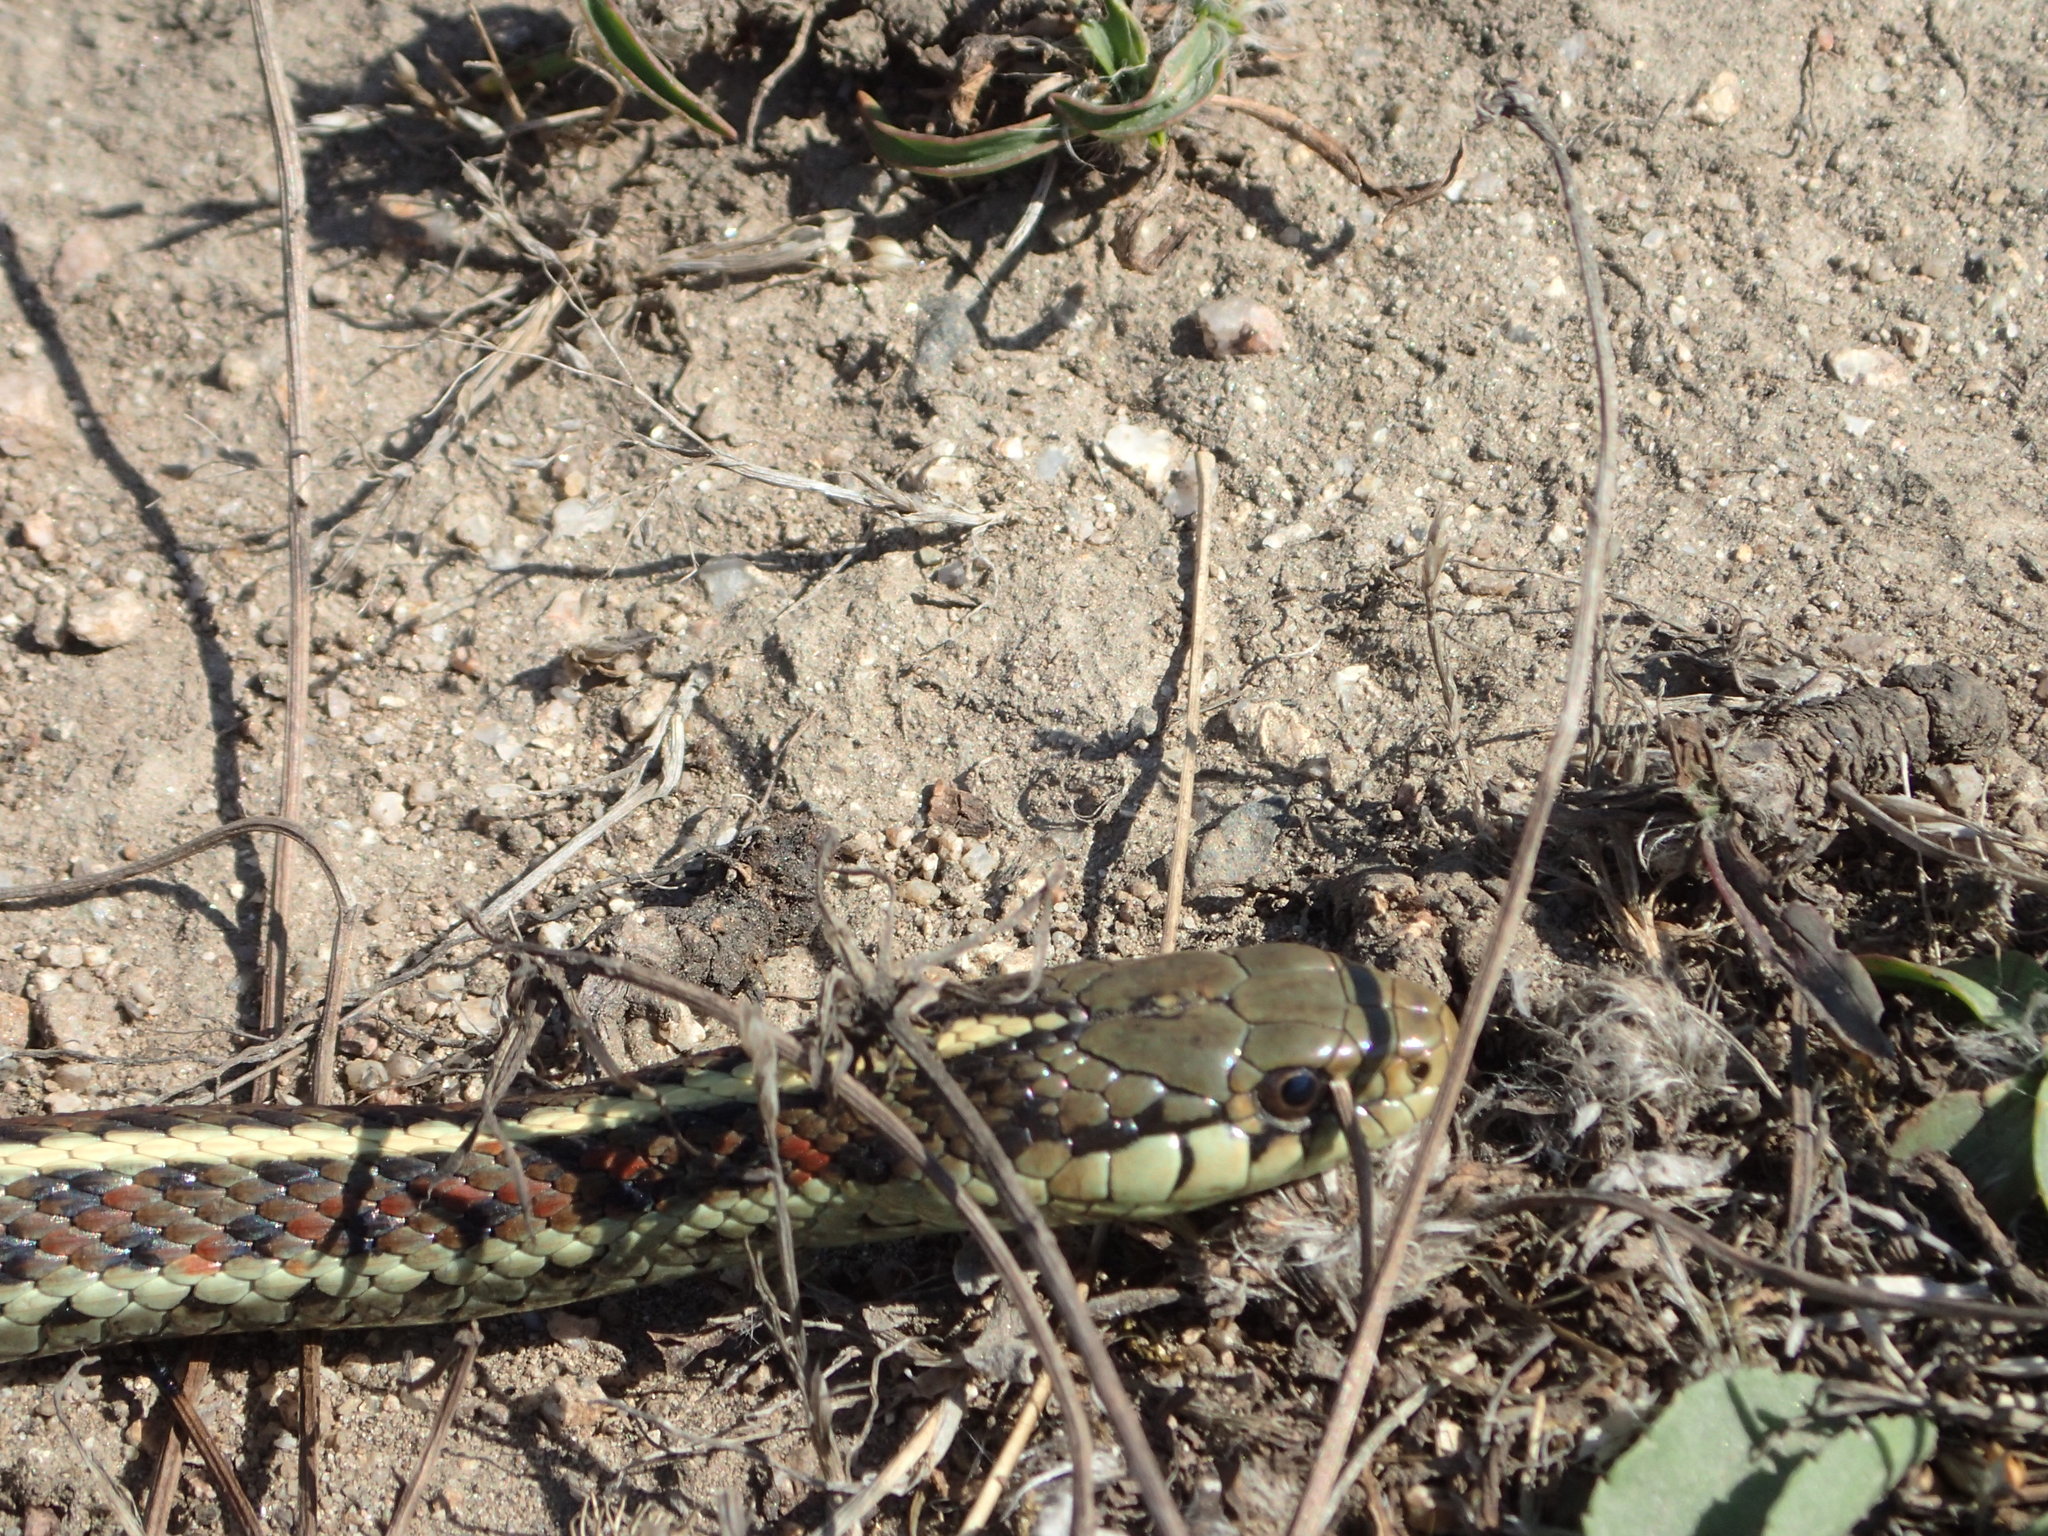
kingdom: Animalia
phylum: Chordata
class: Squamata
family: Colubridae
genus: Thamnophis
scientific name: Thamnophis elegans
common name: Western terrestrial garter snake
